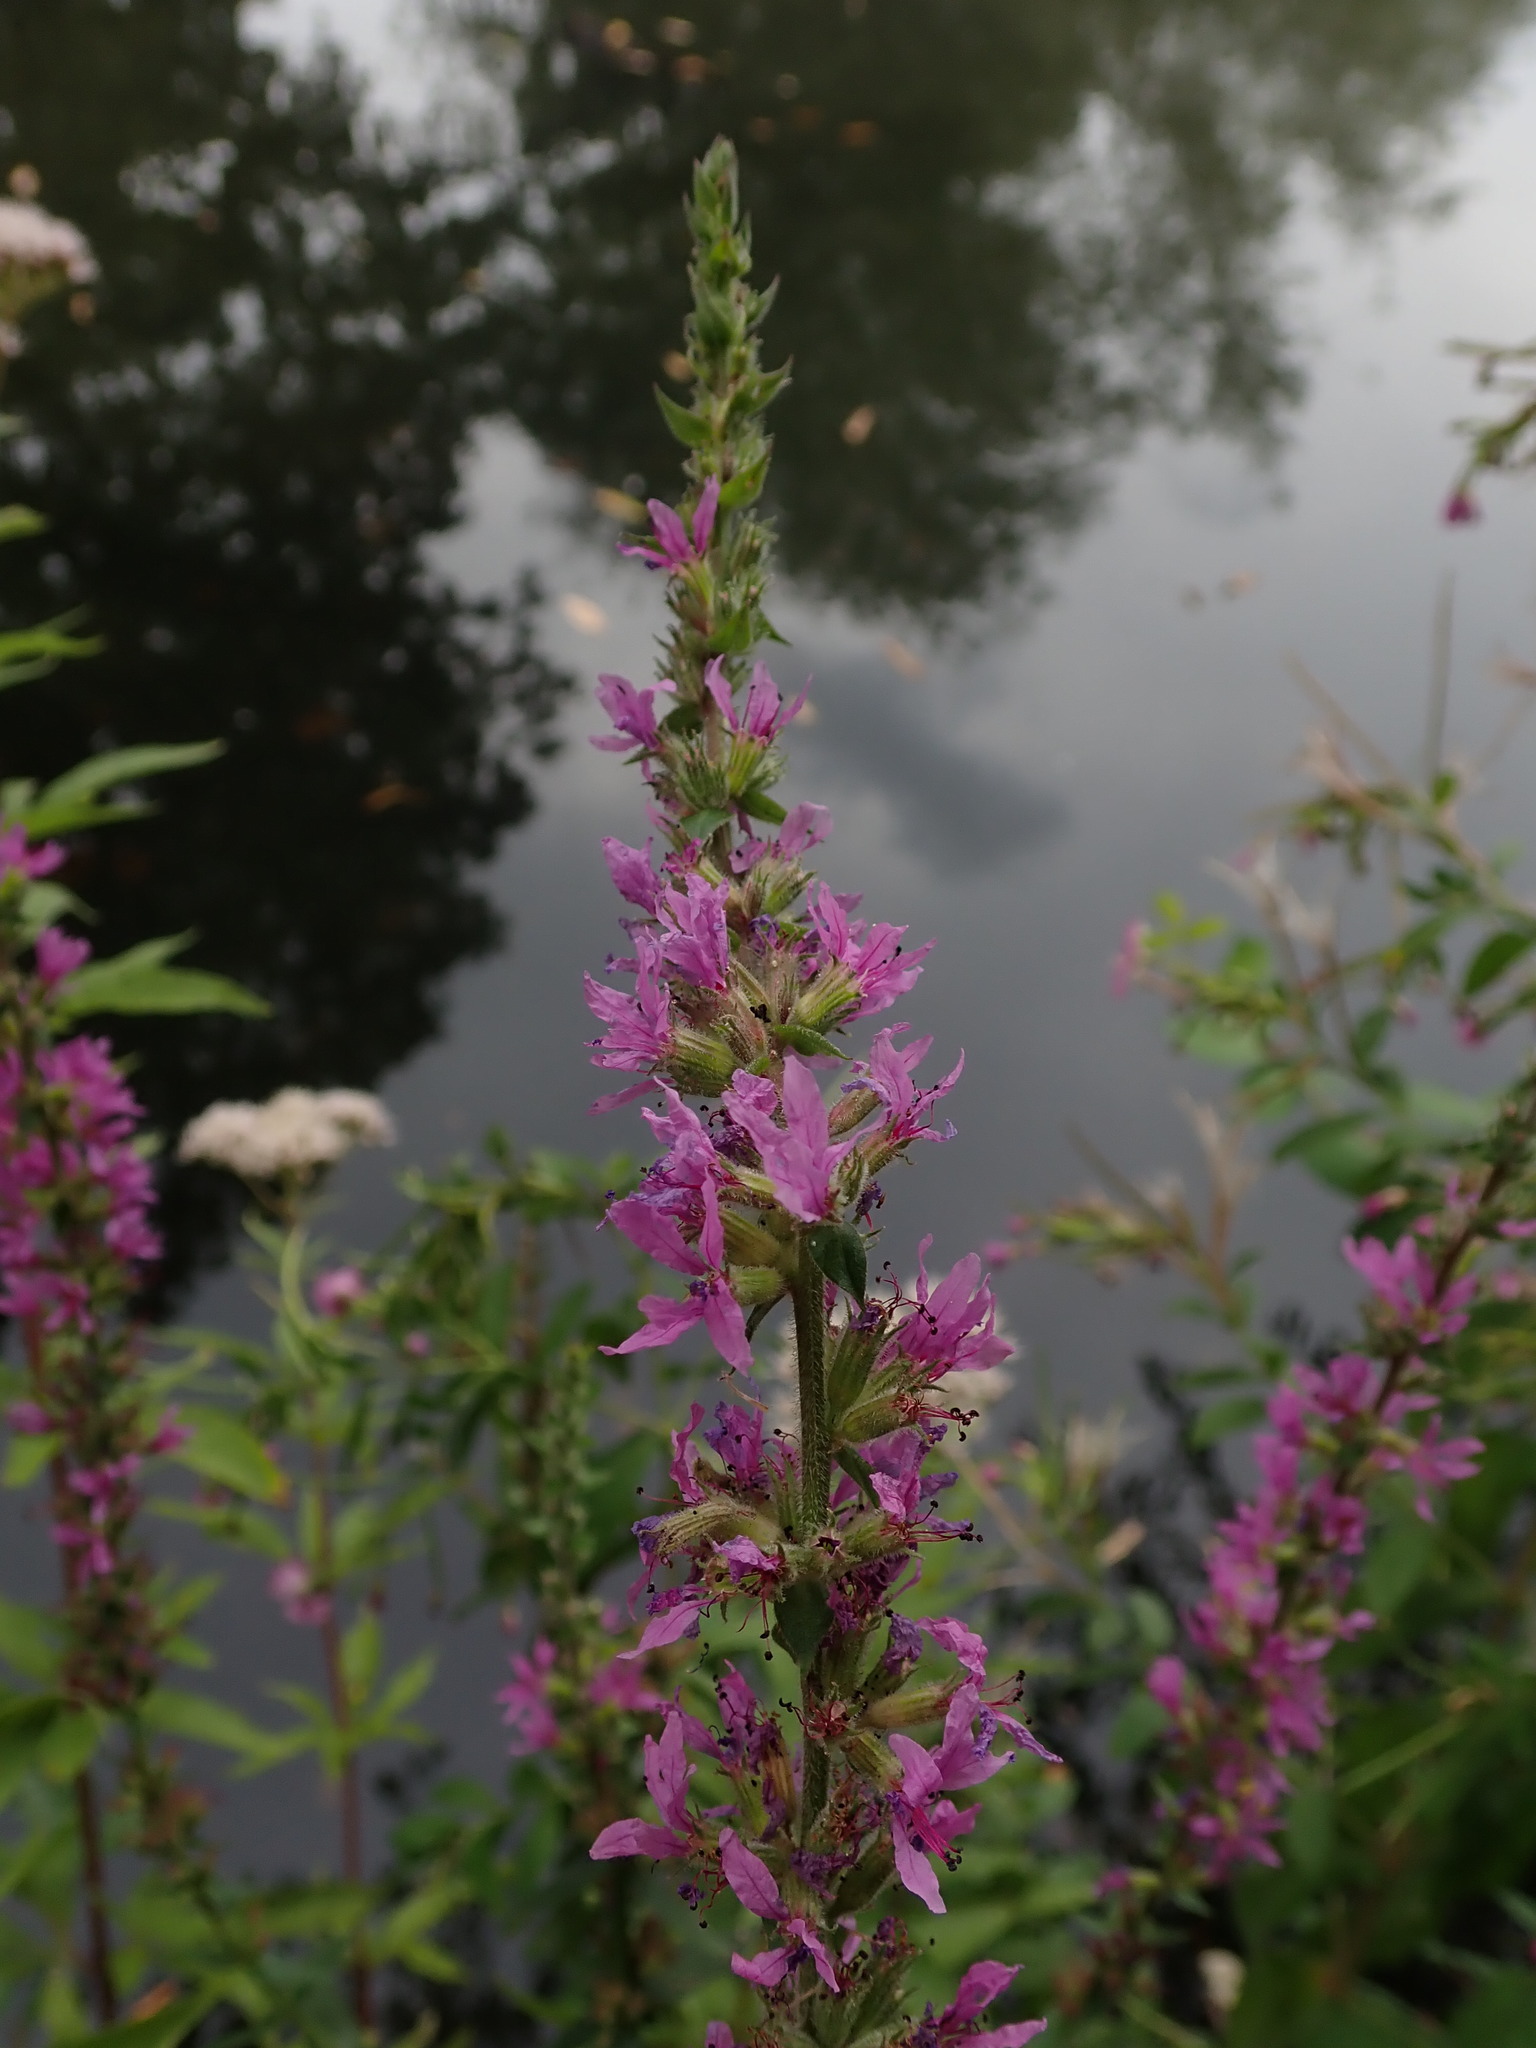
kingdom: Plantae
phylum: Tracheophyta
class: Magnoliopsida
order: Myrtales
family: Lythraceae
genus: Lythrum
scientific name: Lythrum salicaria
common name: Purple loosestrife
